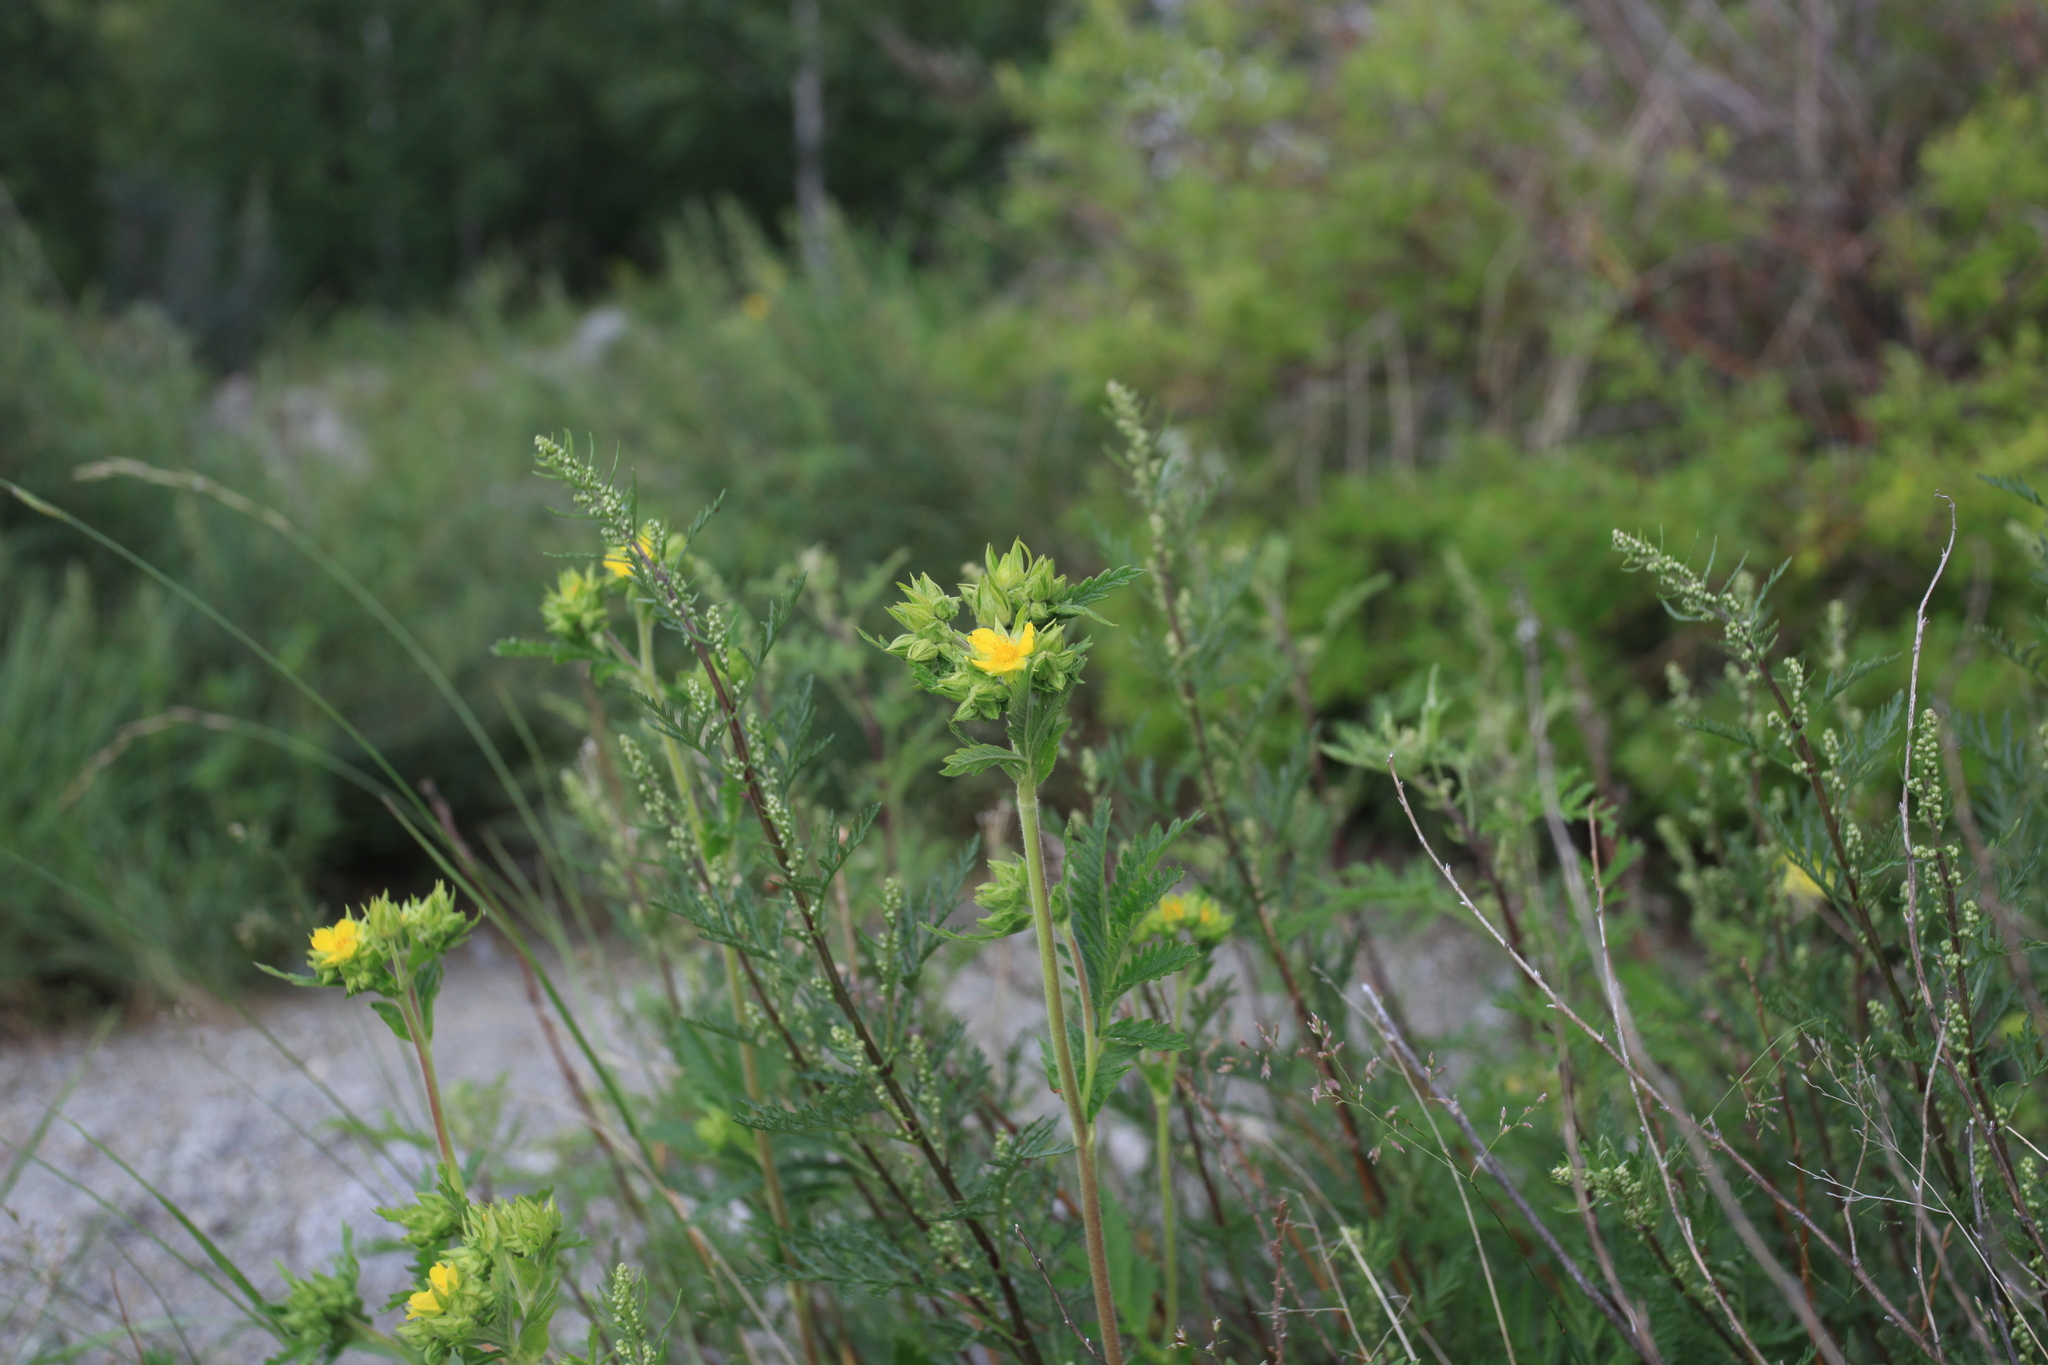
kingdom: Plantae
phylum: Tracheophyta
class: Magnoliopsida
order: Rosales
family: Rosaceae
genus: Potentilla
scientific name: Potentilla longifolia
